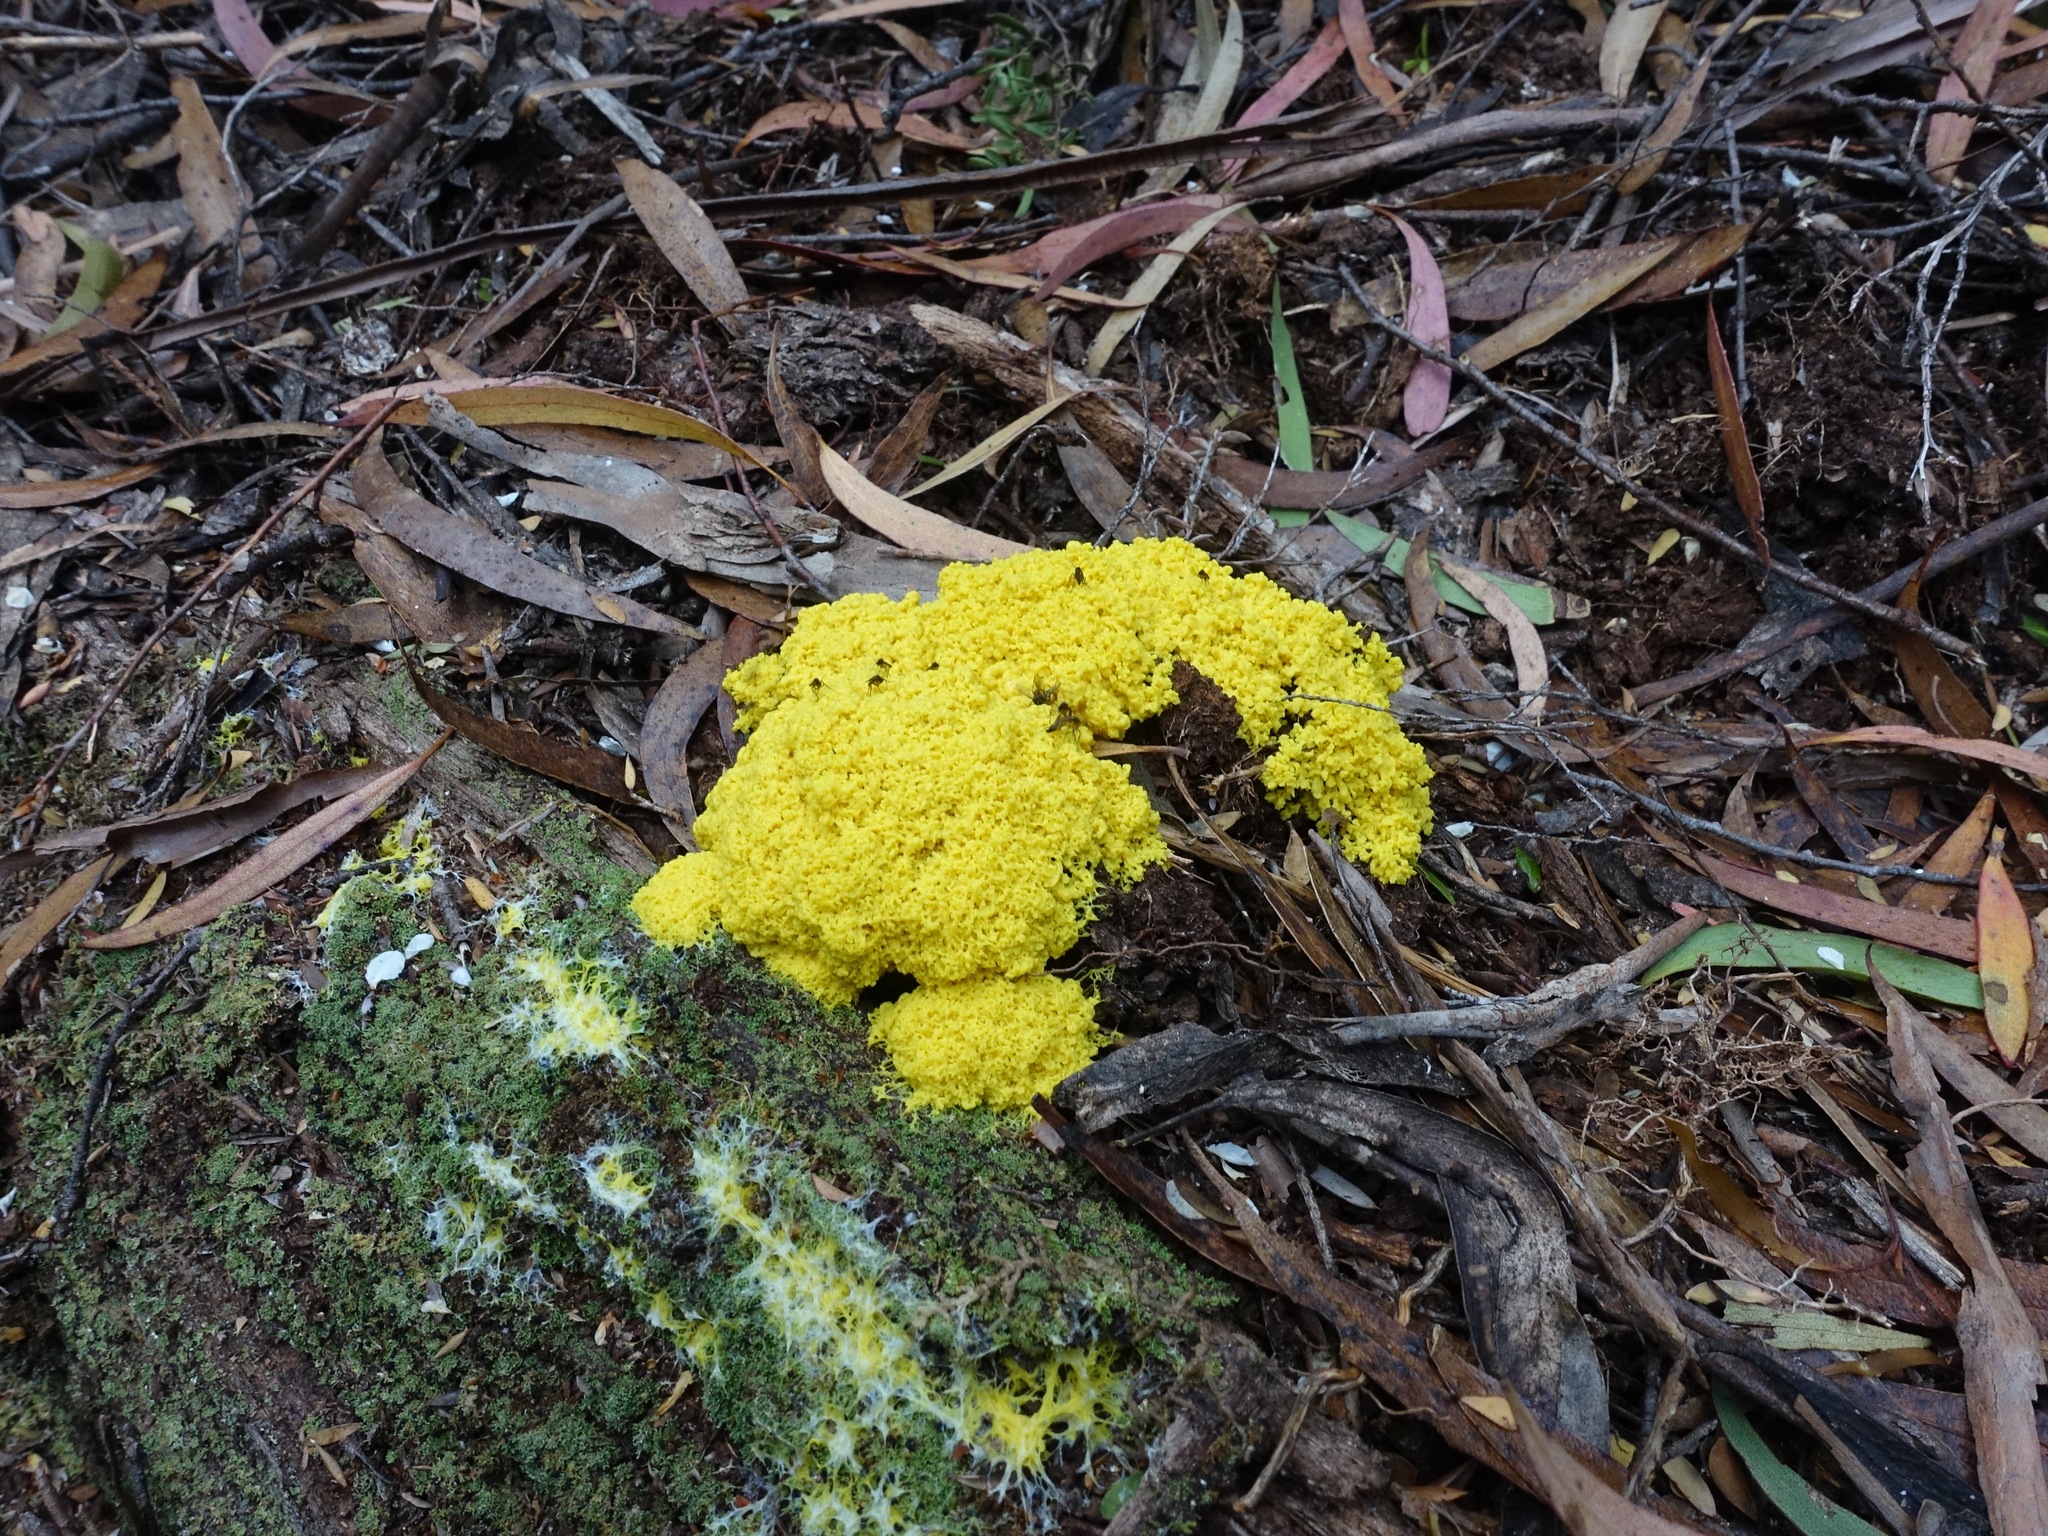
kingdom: Protozoa
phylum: Mycetozoa
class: Myxomycetes
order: Physarales
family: Physaraceae
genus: Fuligo
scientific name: Fuligo septica
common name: Dog vomit slime mold
